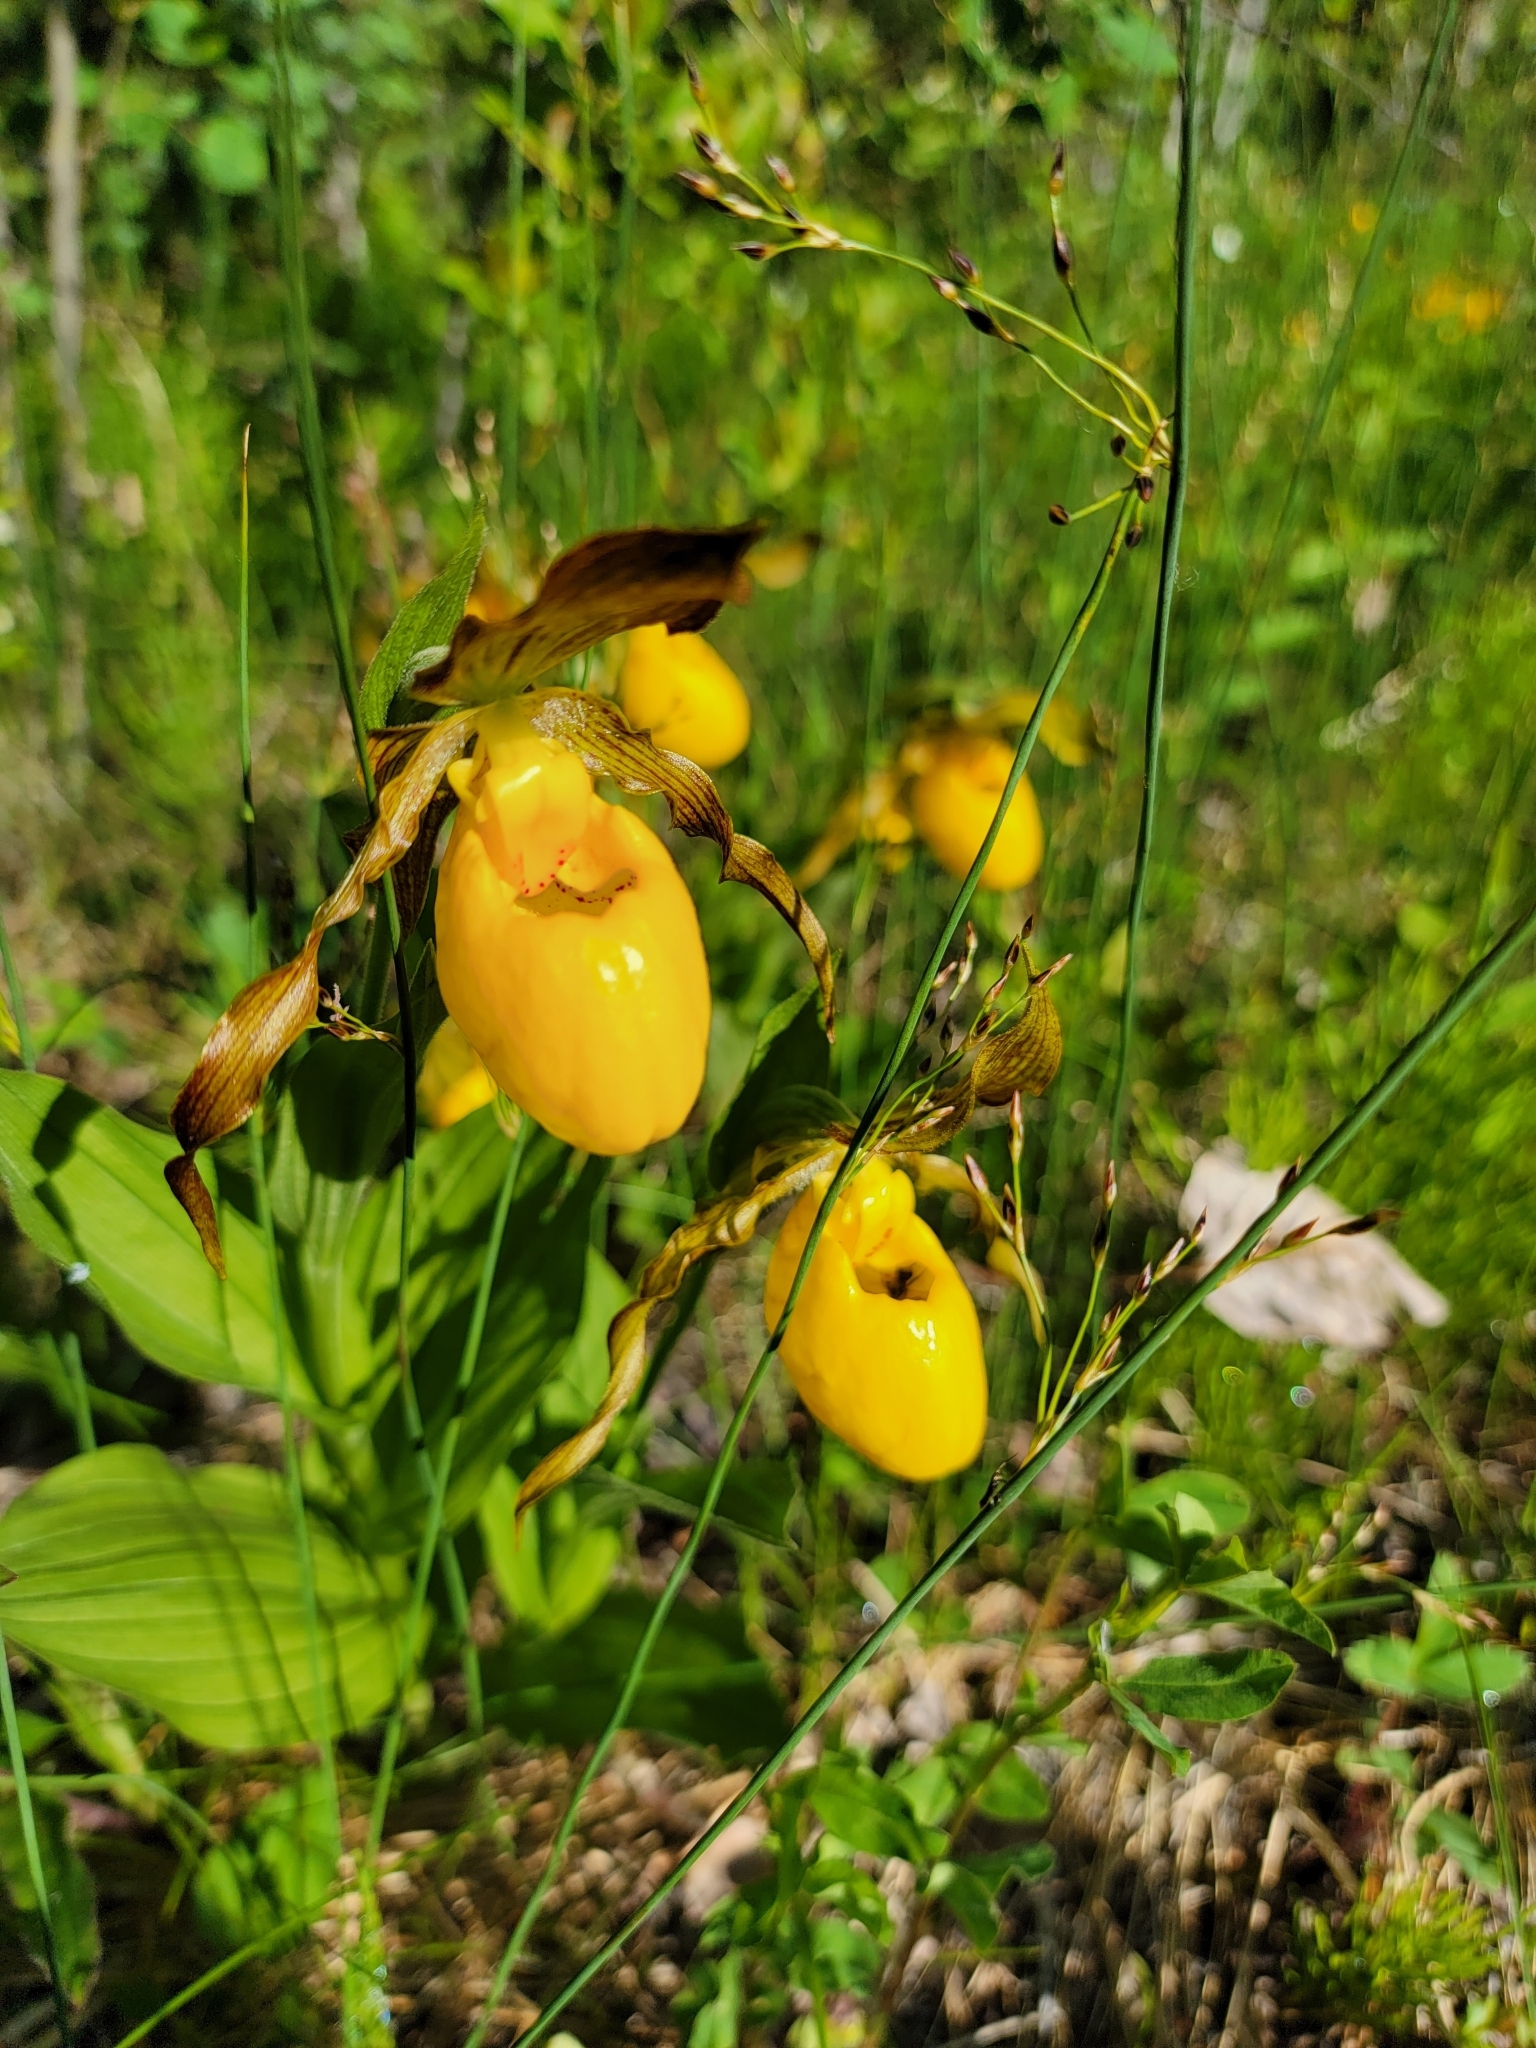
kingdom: Plantae
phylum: Tracheophyta
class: Liliopsida
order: Asparagales
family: Orchidaceae
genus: Cypripedium
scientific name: Cypripedium parviflorum
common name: American yellow lady's-slipper
